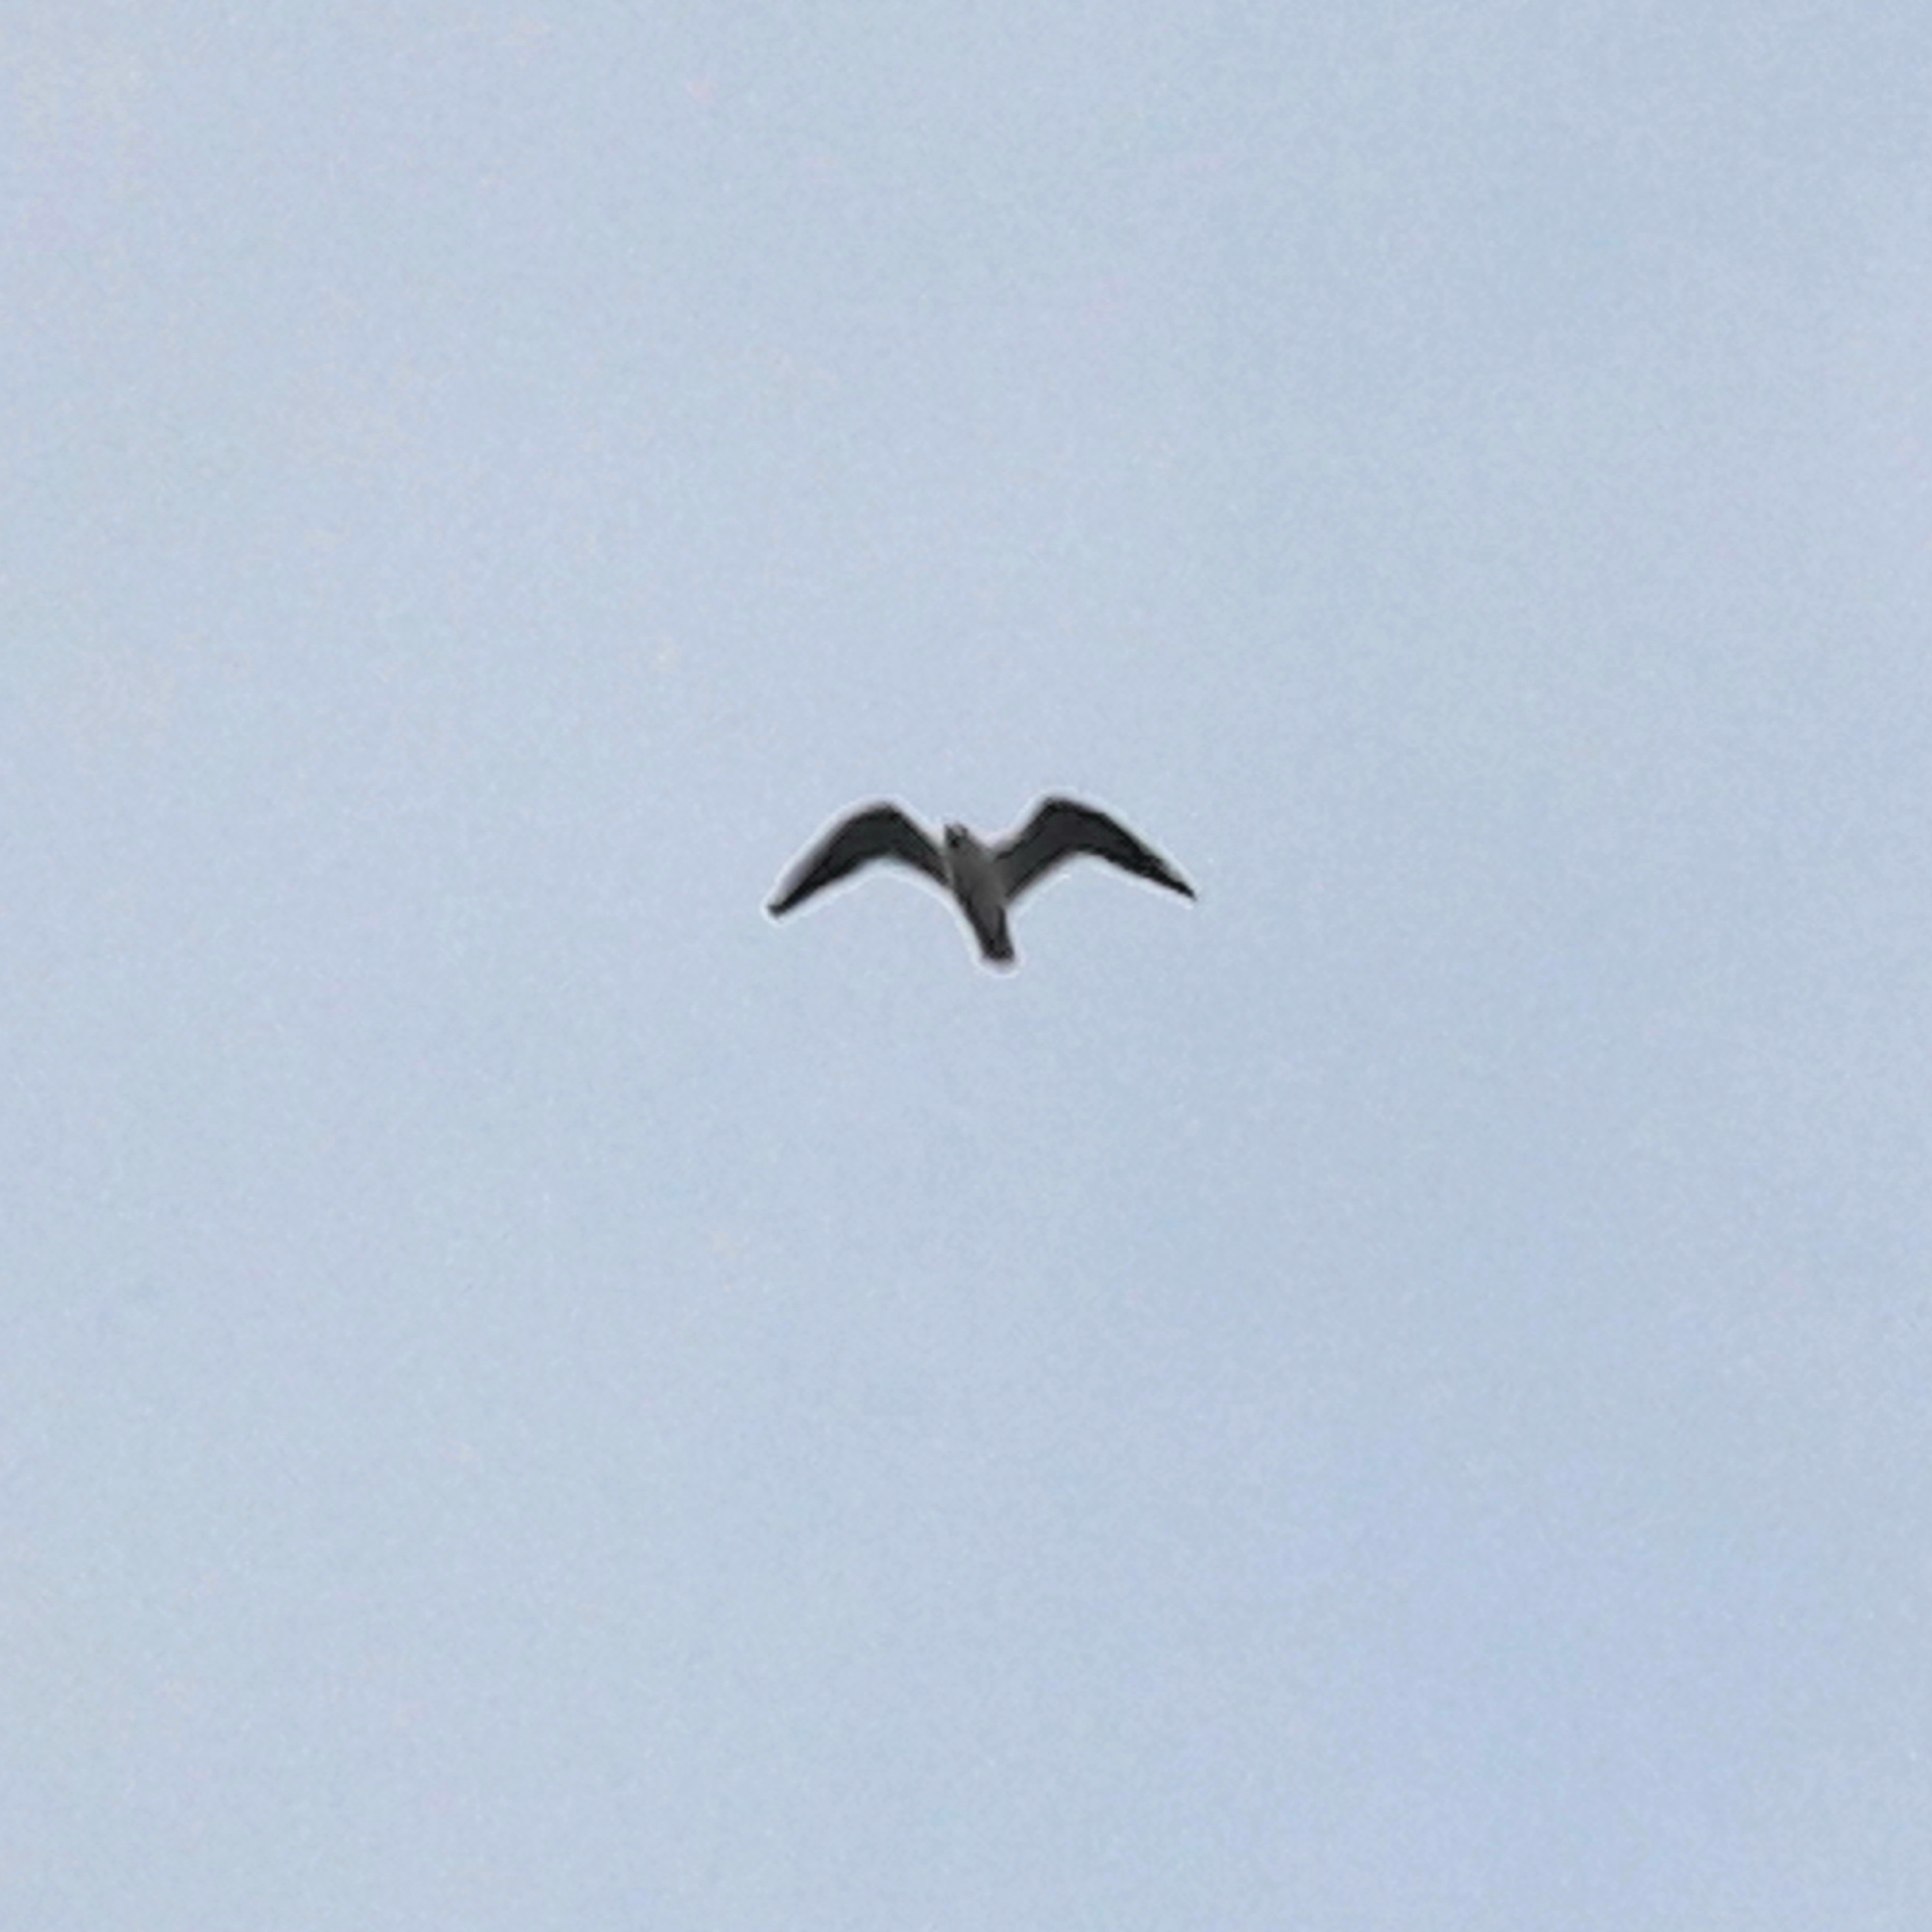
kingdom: Animalia
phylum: Chordata
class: Aves
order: Charadriiformes
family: Laridae
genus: Chroicocephalus
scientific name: Chroicocephalus ridibundus
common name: Black-headed gull
